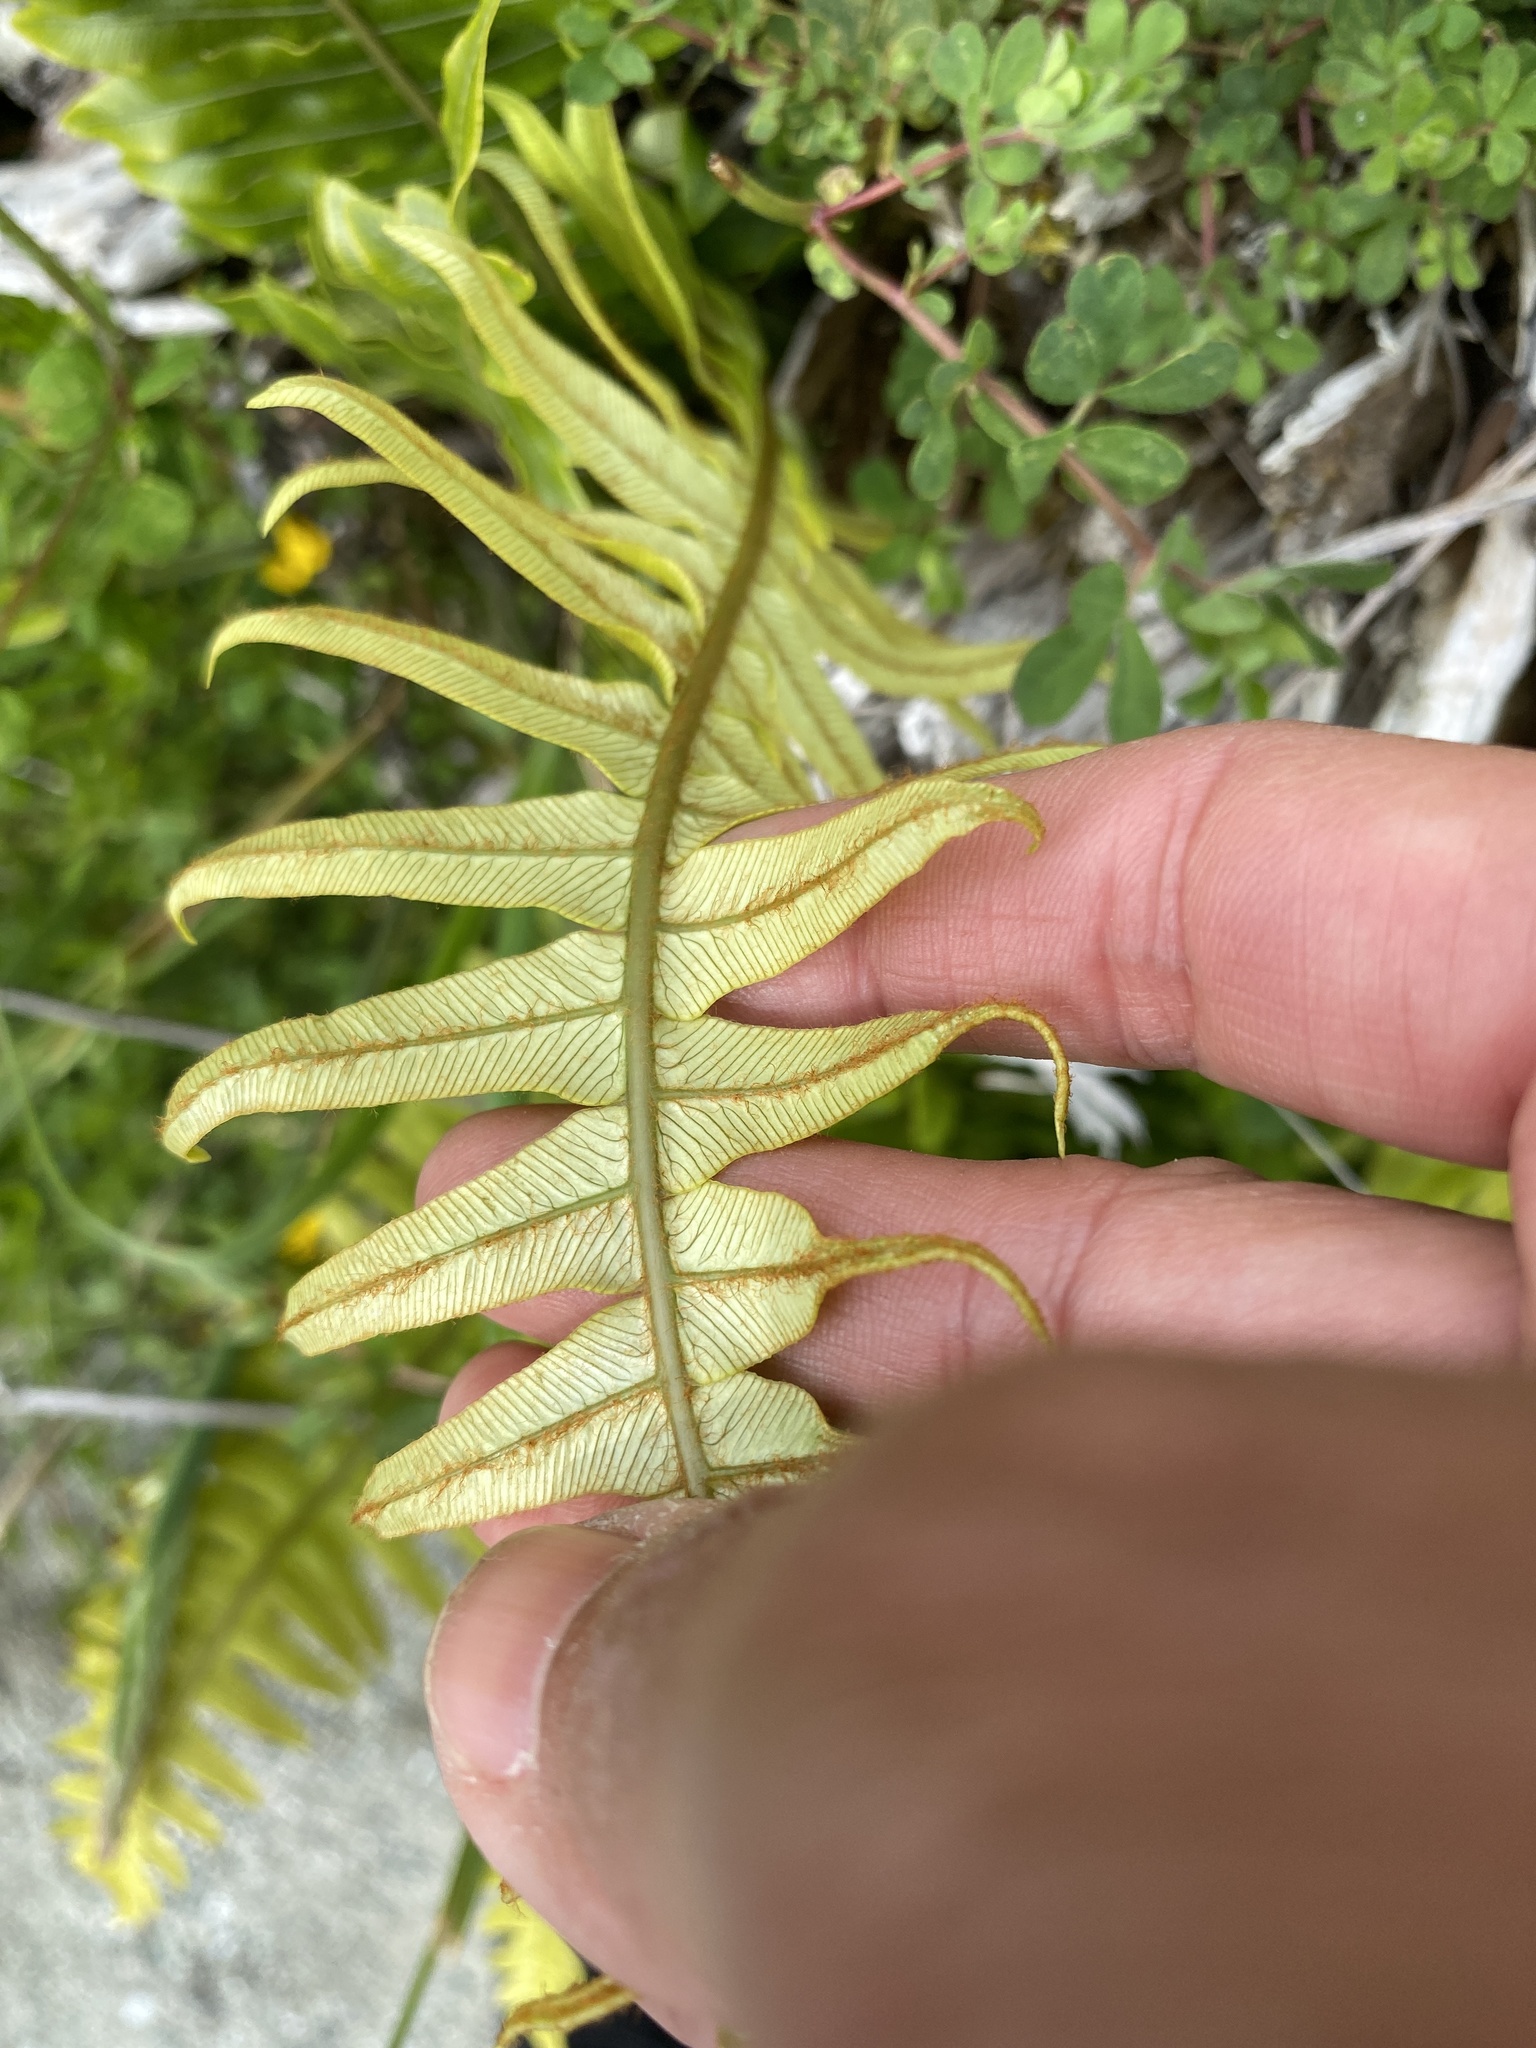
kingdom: Plantae
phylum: Tracheophyta
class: Polypodiopsida
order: Polypodiales
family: Blechnaceae
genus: Lomaria
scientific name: Lomaria discolor
